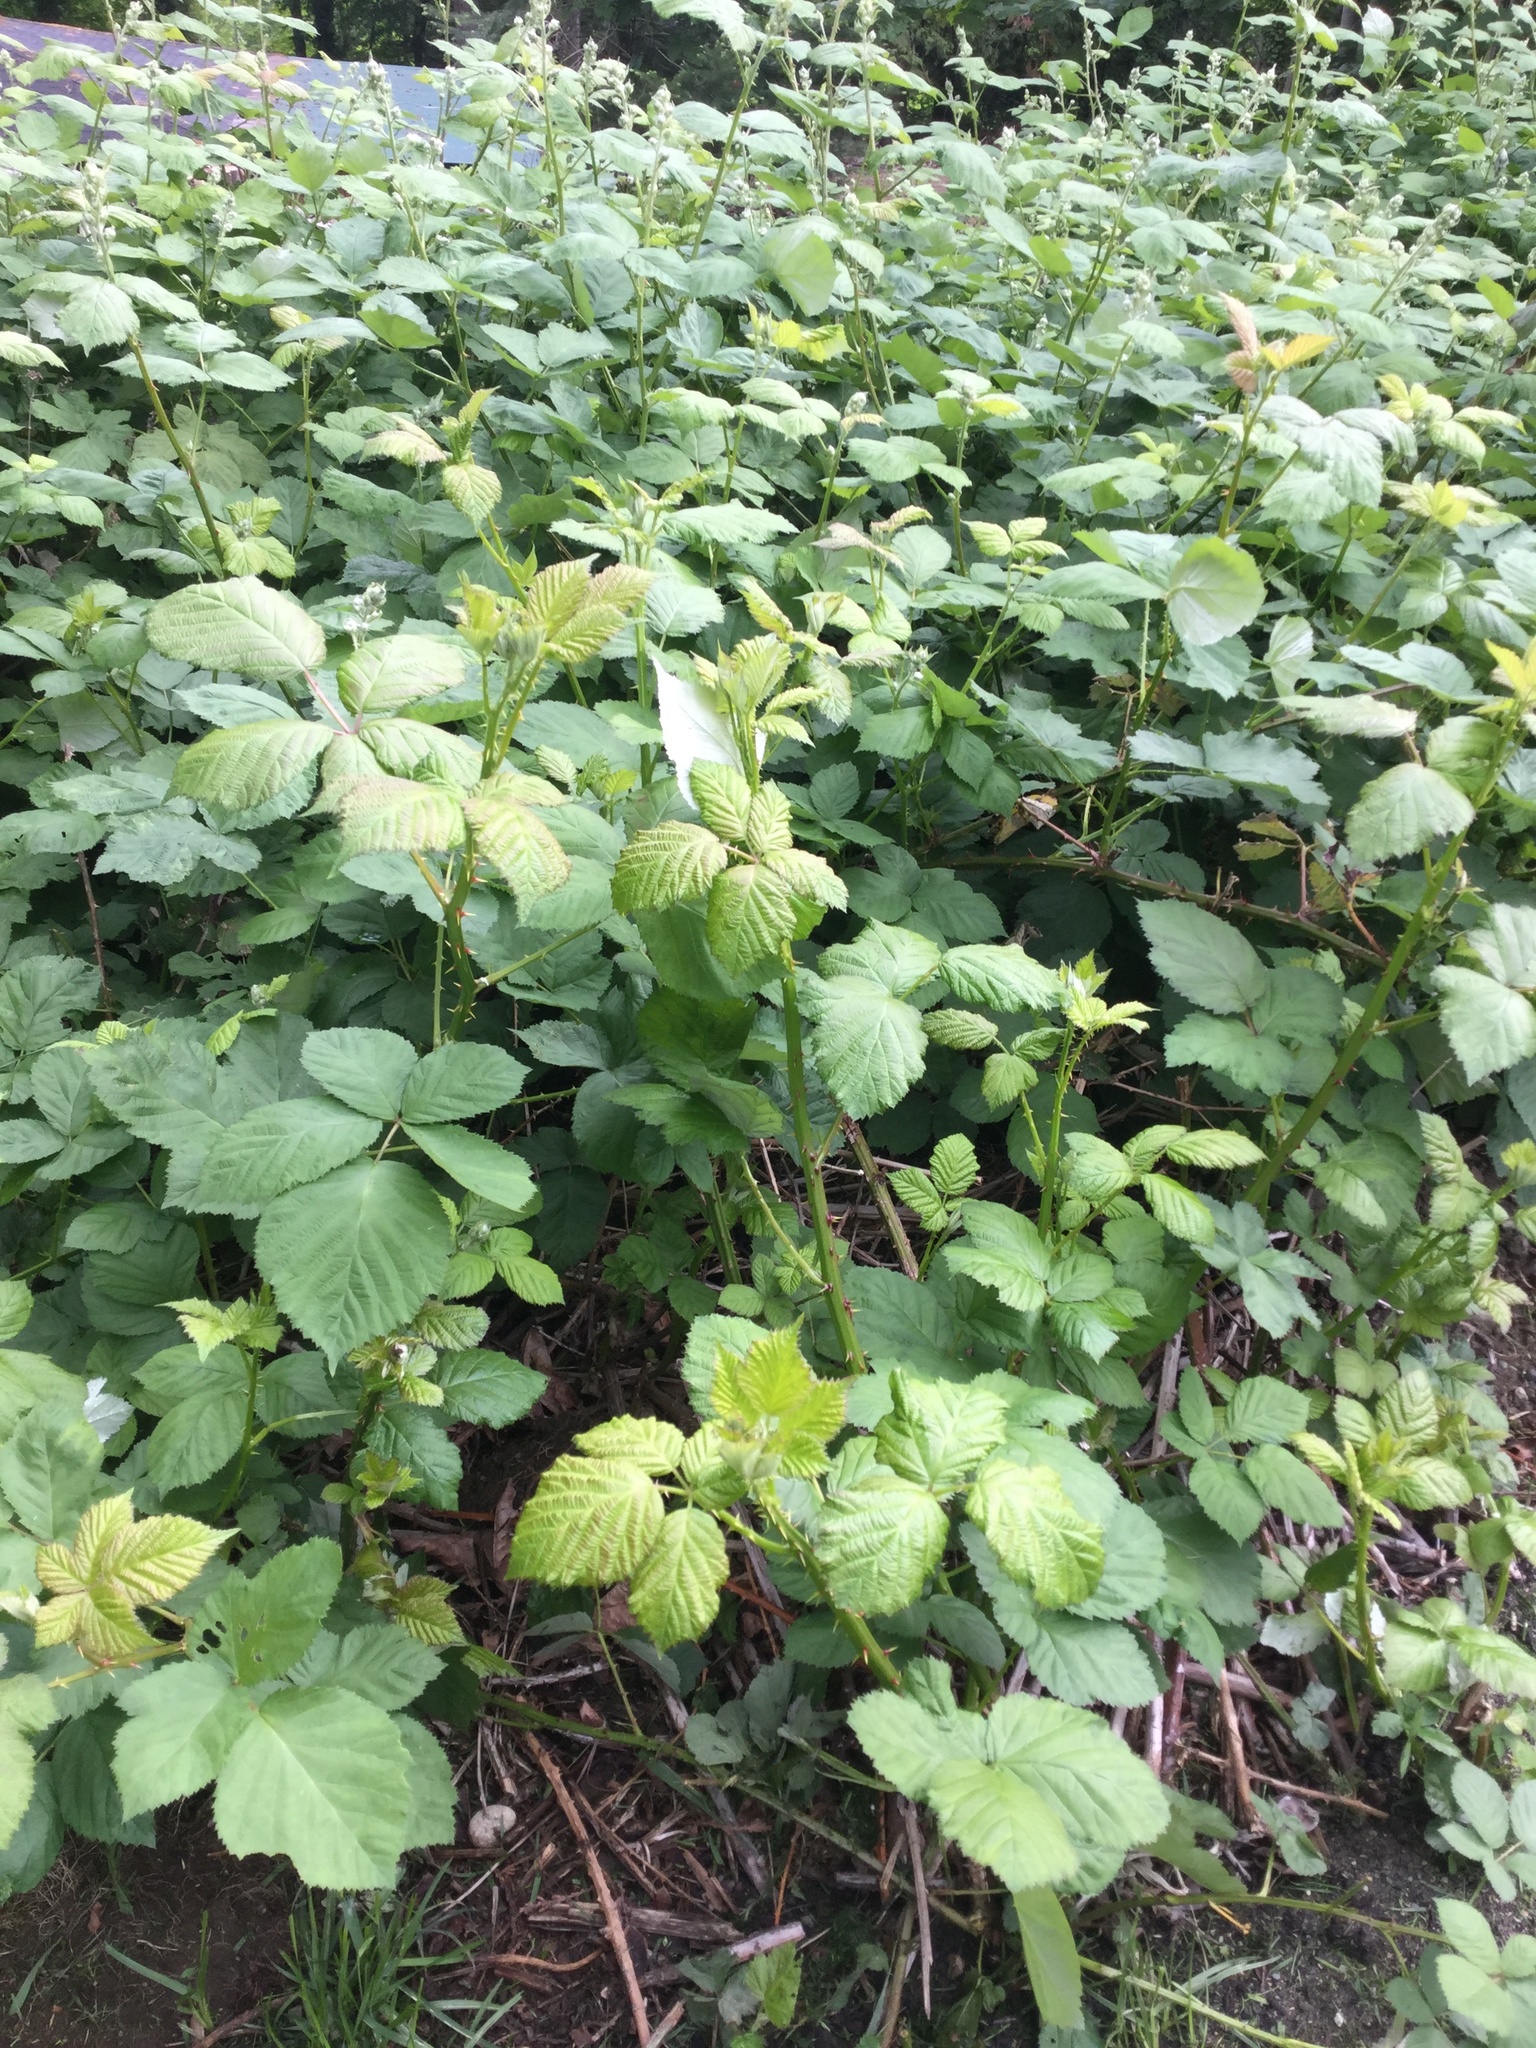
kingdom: Plantae
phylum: Tracheophyta
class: Magnoliopsida
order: Rosales
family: Rosaceae
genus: Rubus
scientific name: Rubus armeniacus
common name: Himalayan blackberry
